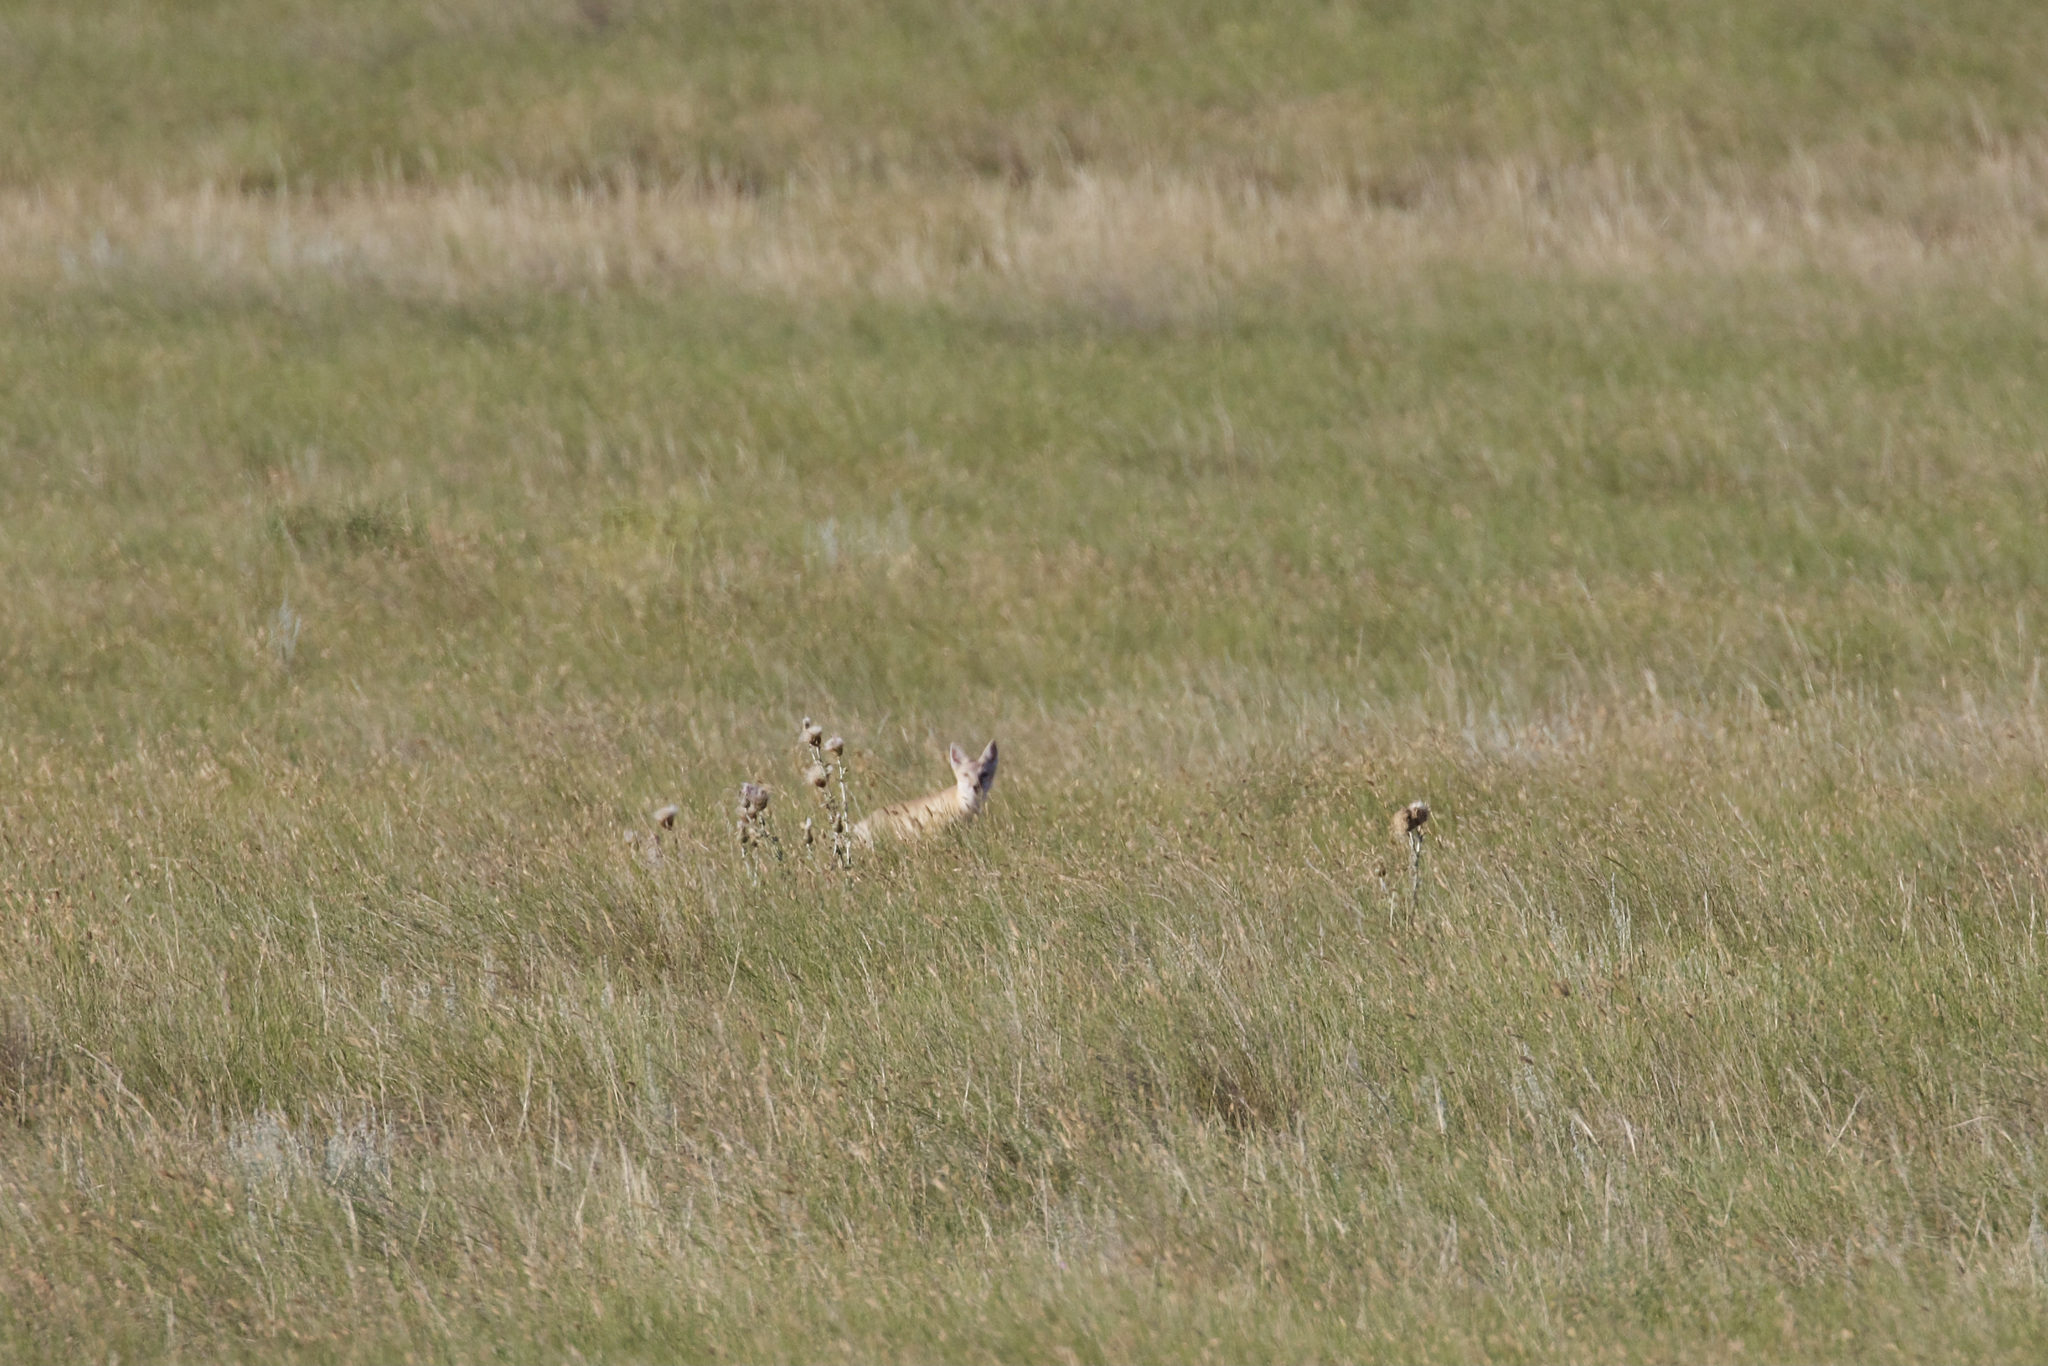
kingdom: Animalia
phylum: Chordata
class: Mammalia
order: Carnivora
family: Canidae
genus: Vulpes
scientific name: Vulpes velox
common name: Swift fox
